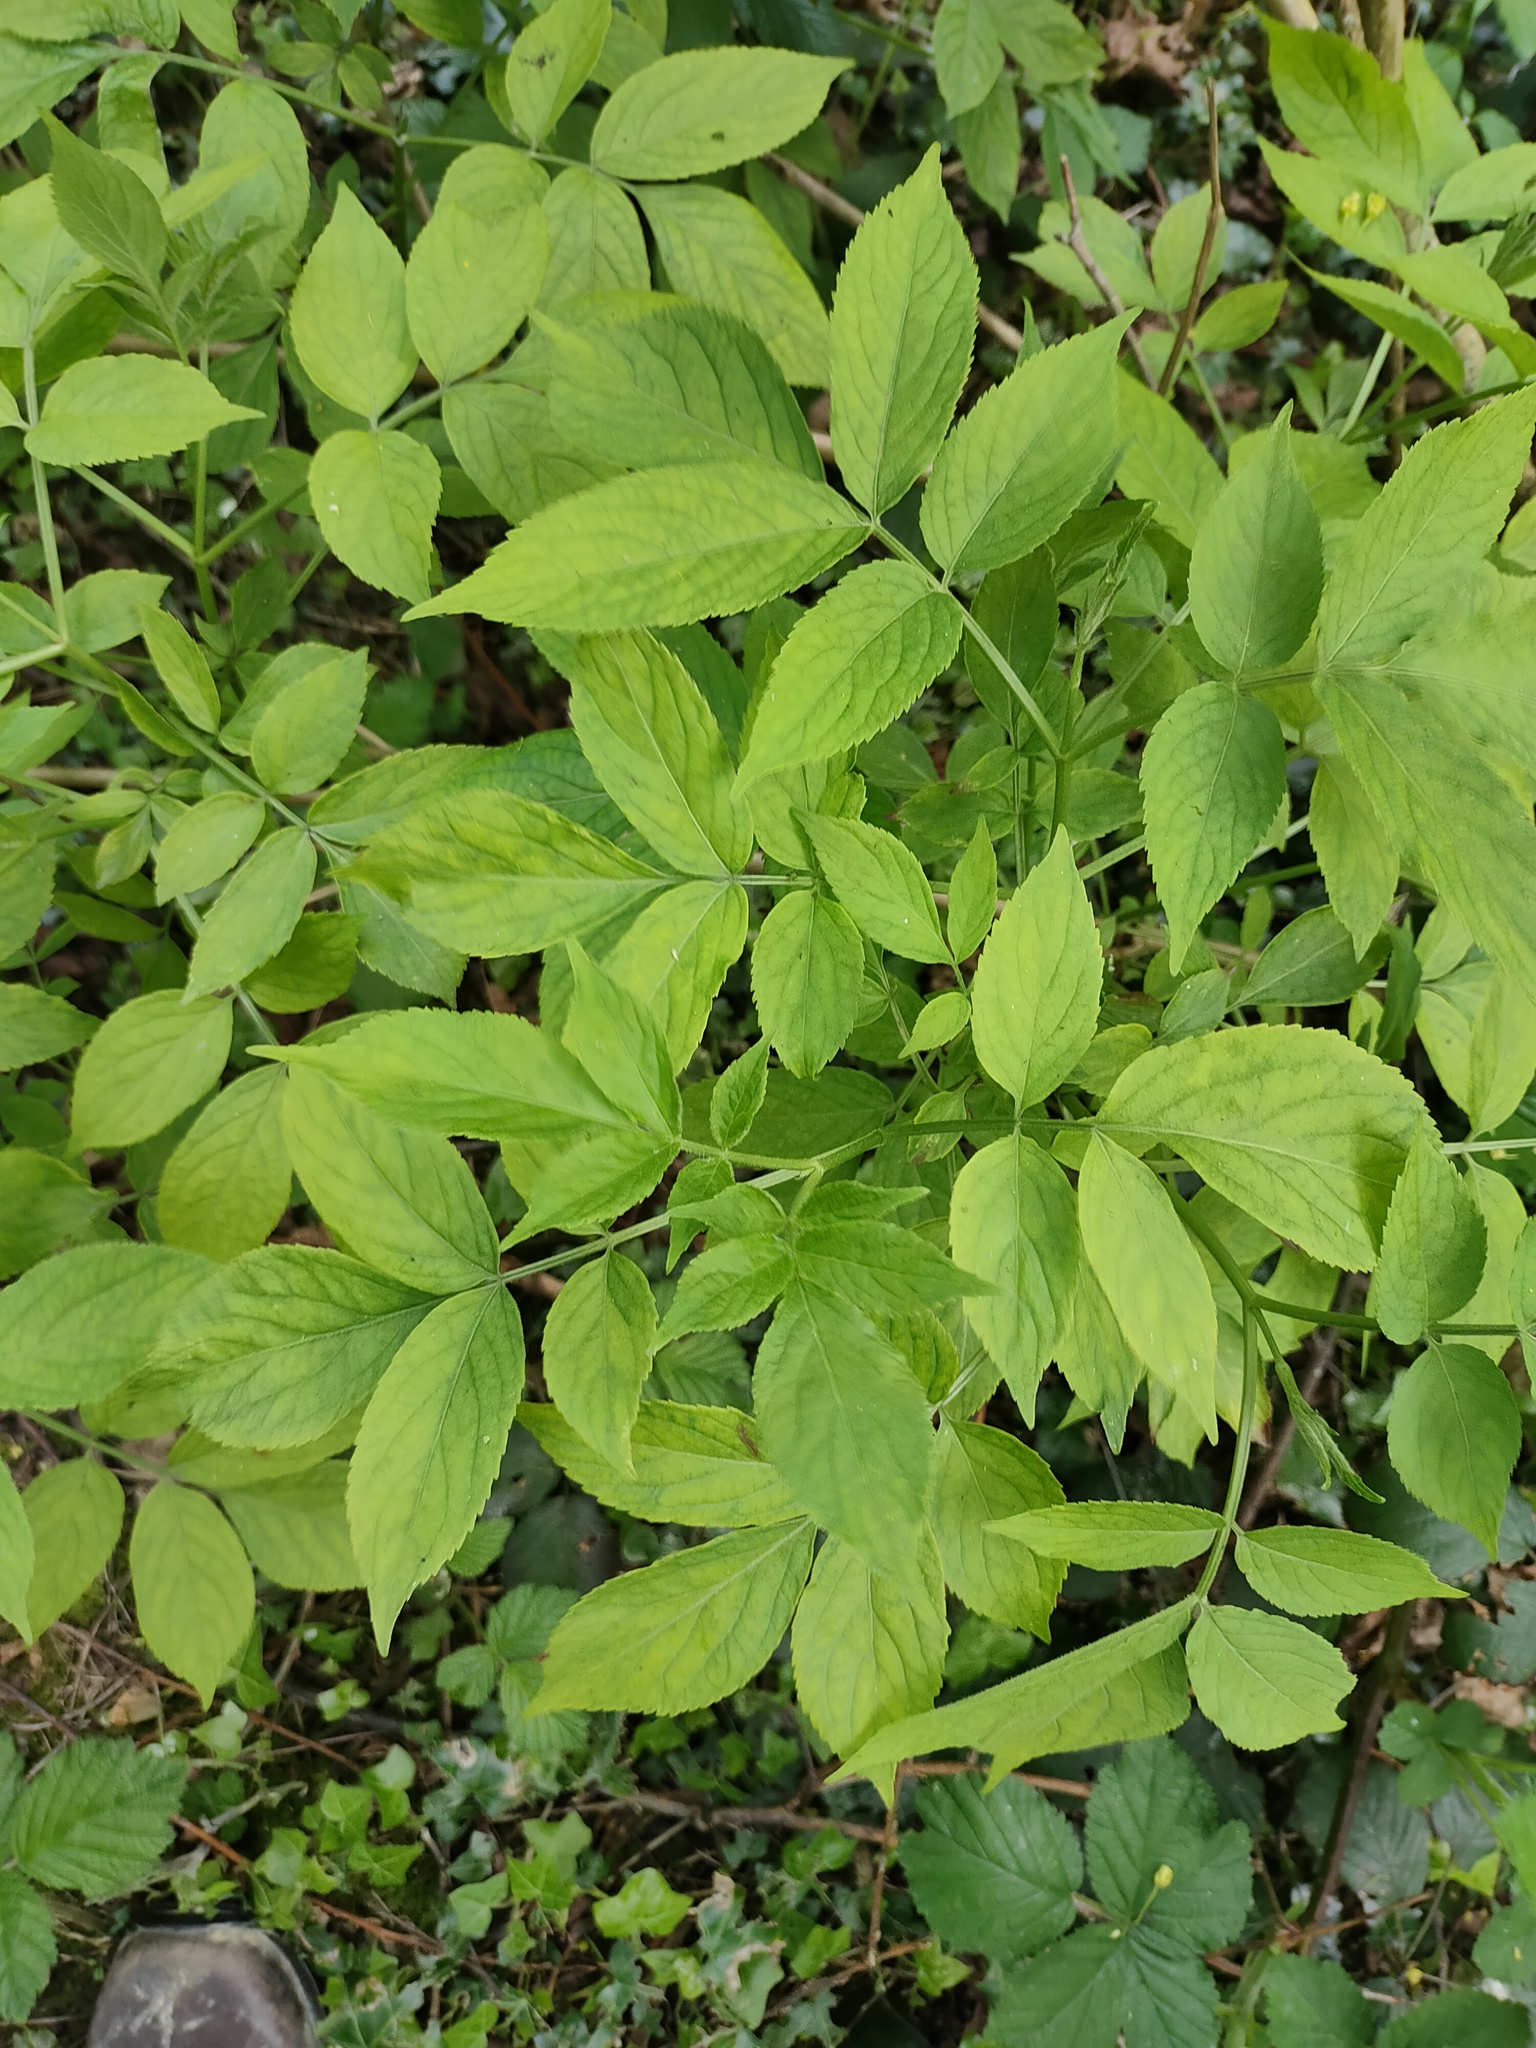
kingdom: Plantae
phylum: Tracheophyta
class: Magnoliopsida
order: Dipsacales
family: Viburnaceae
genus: Sambucus
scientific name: Sambucus nigra
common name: Elder
